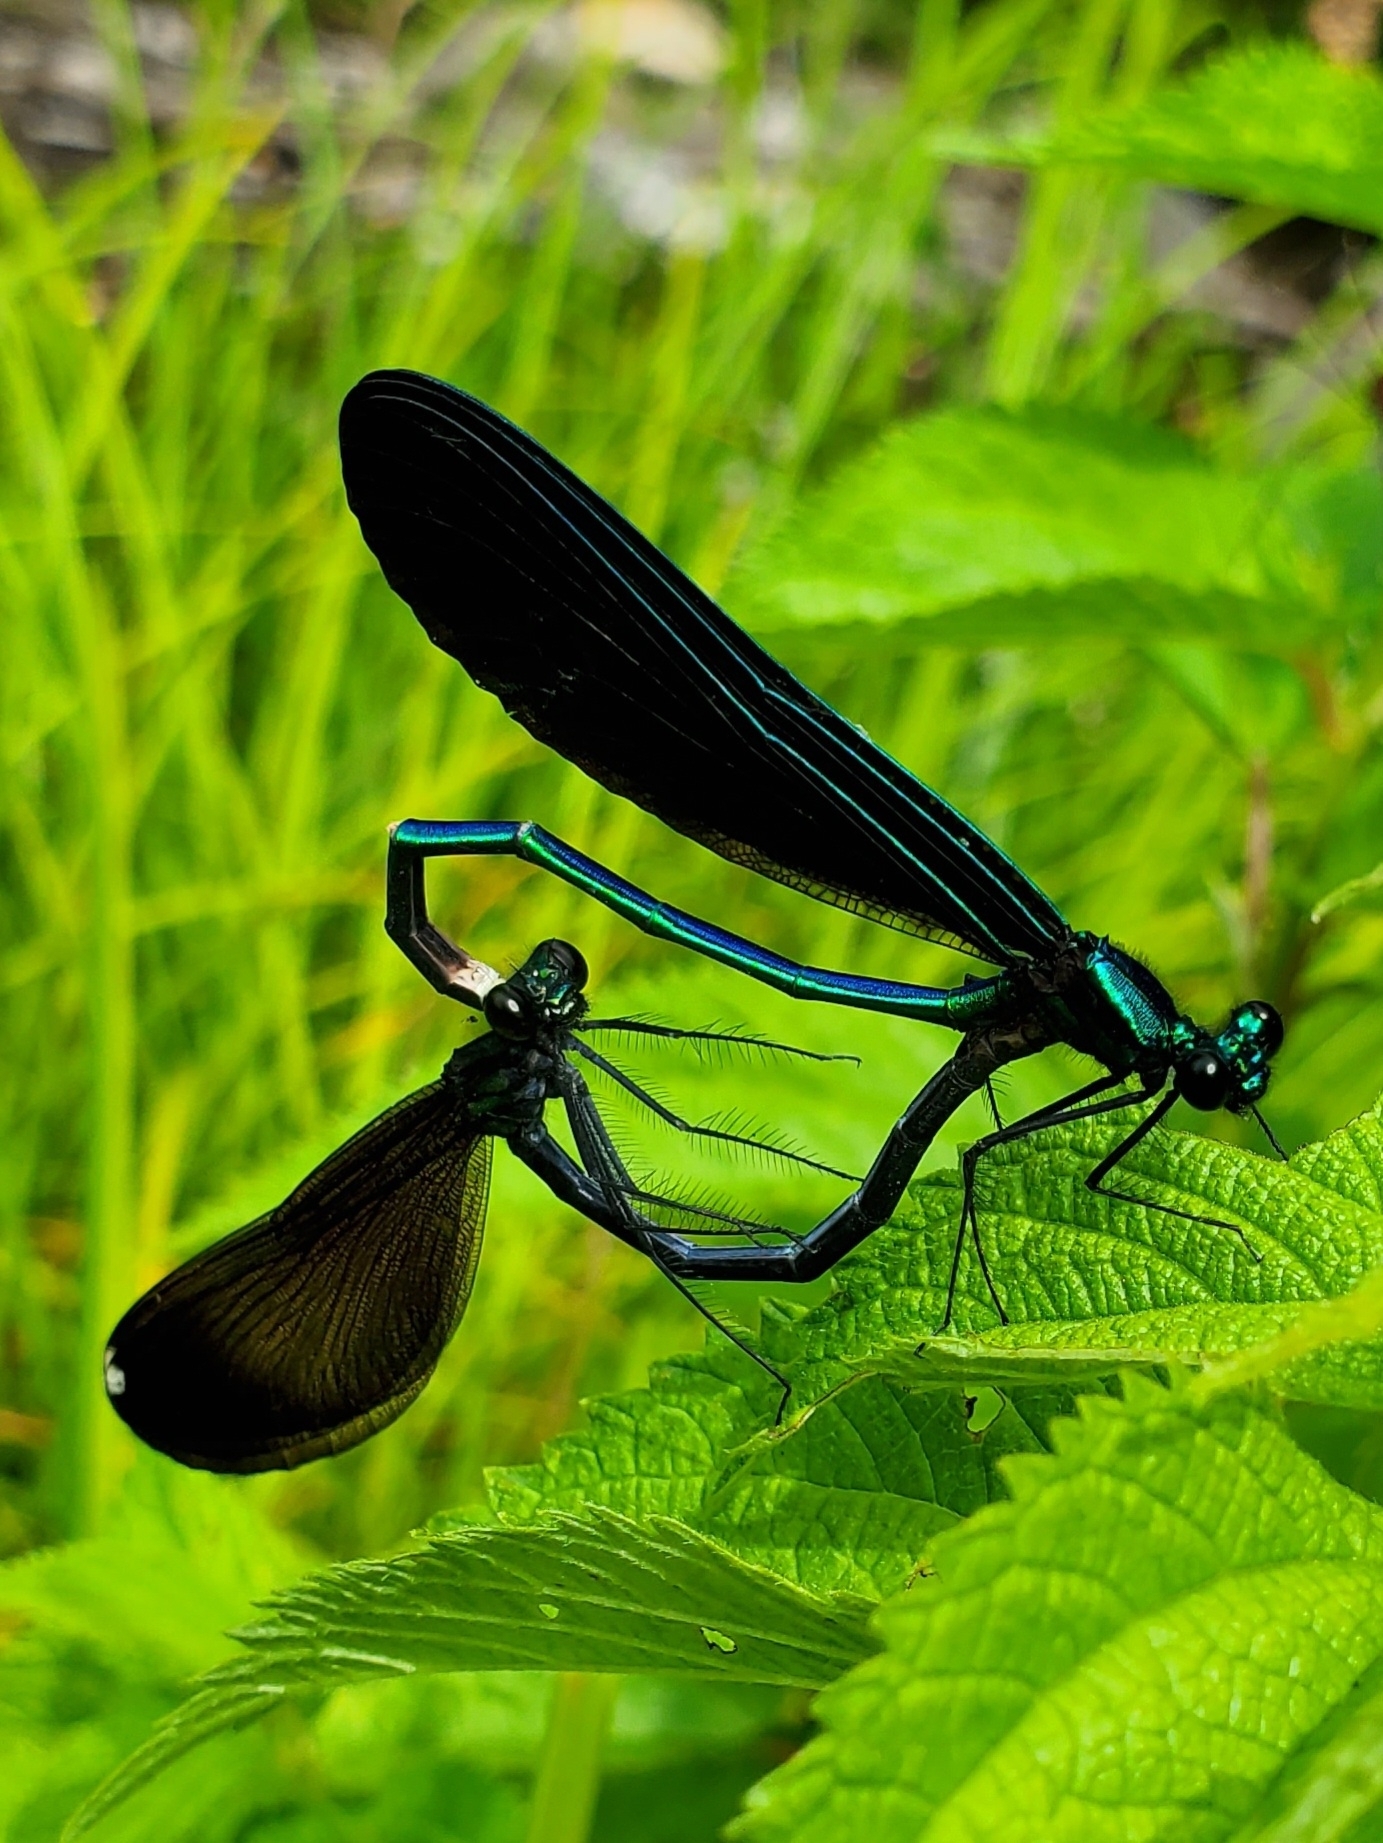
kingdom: Animalia
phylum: Arthropoda
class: Insecta
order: Odonata
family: Calopterygidae
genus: Calopteryx
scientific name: Calopteryx maculata
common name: Ebony jewelwing
